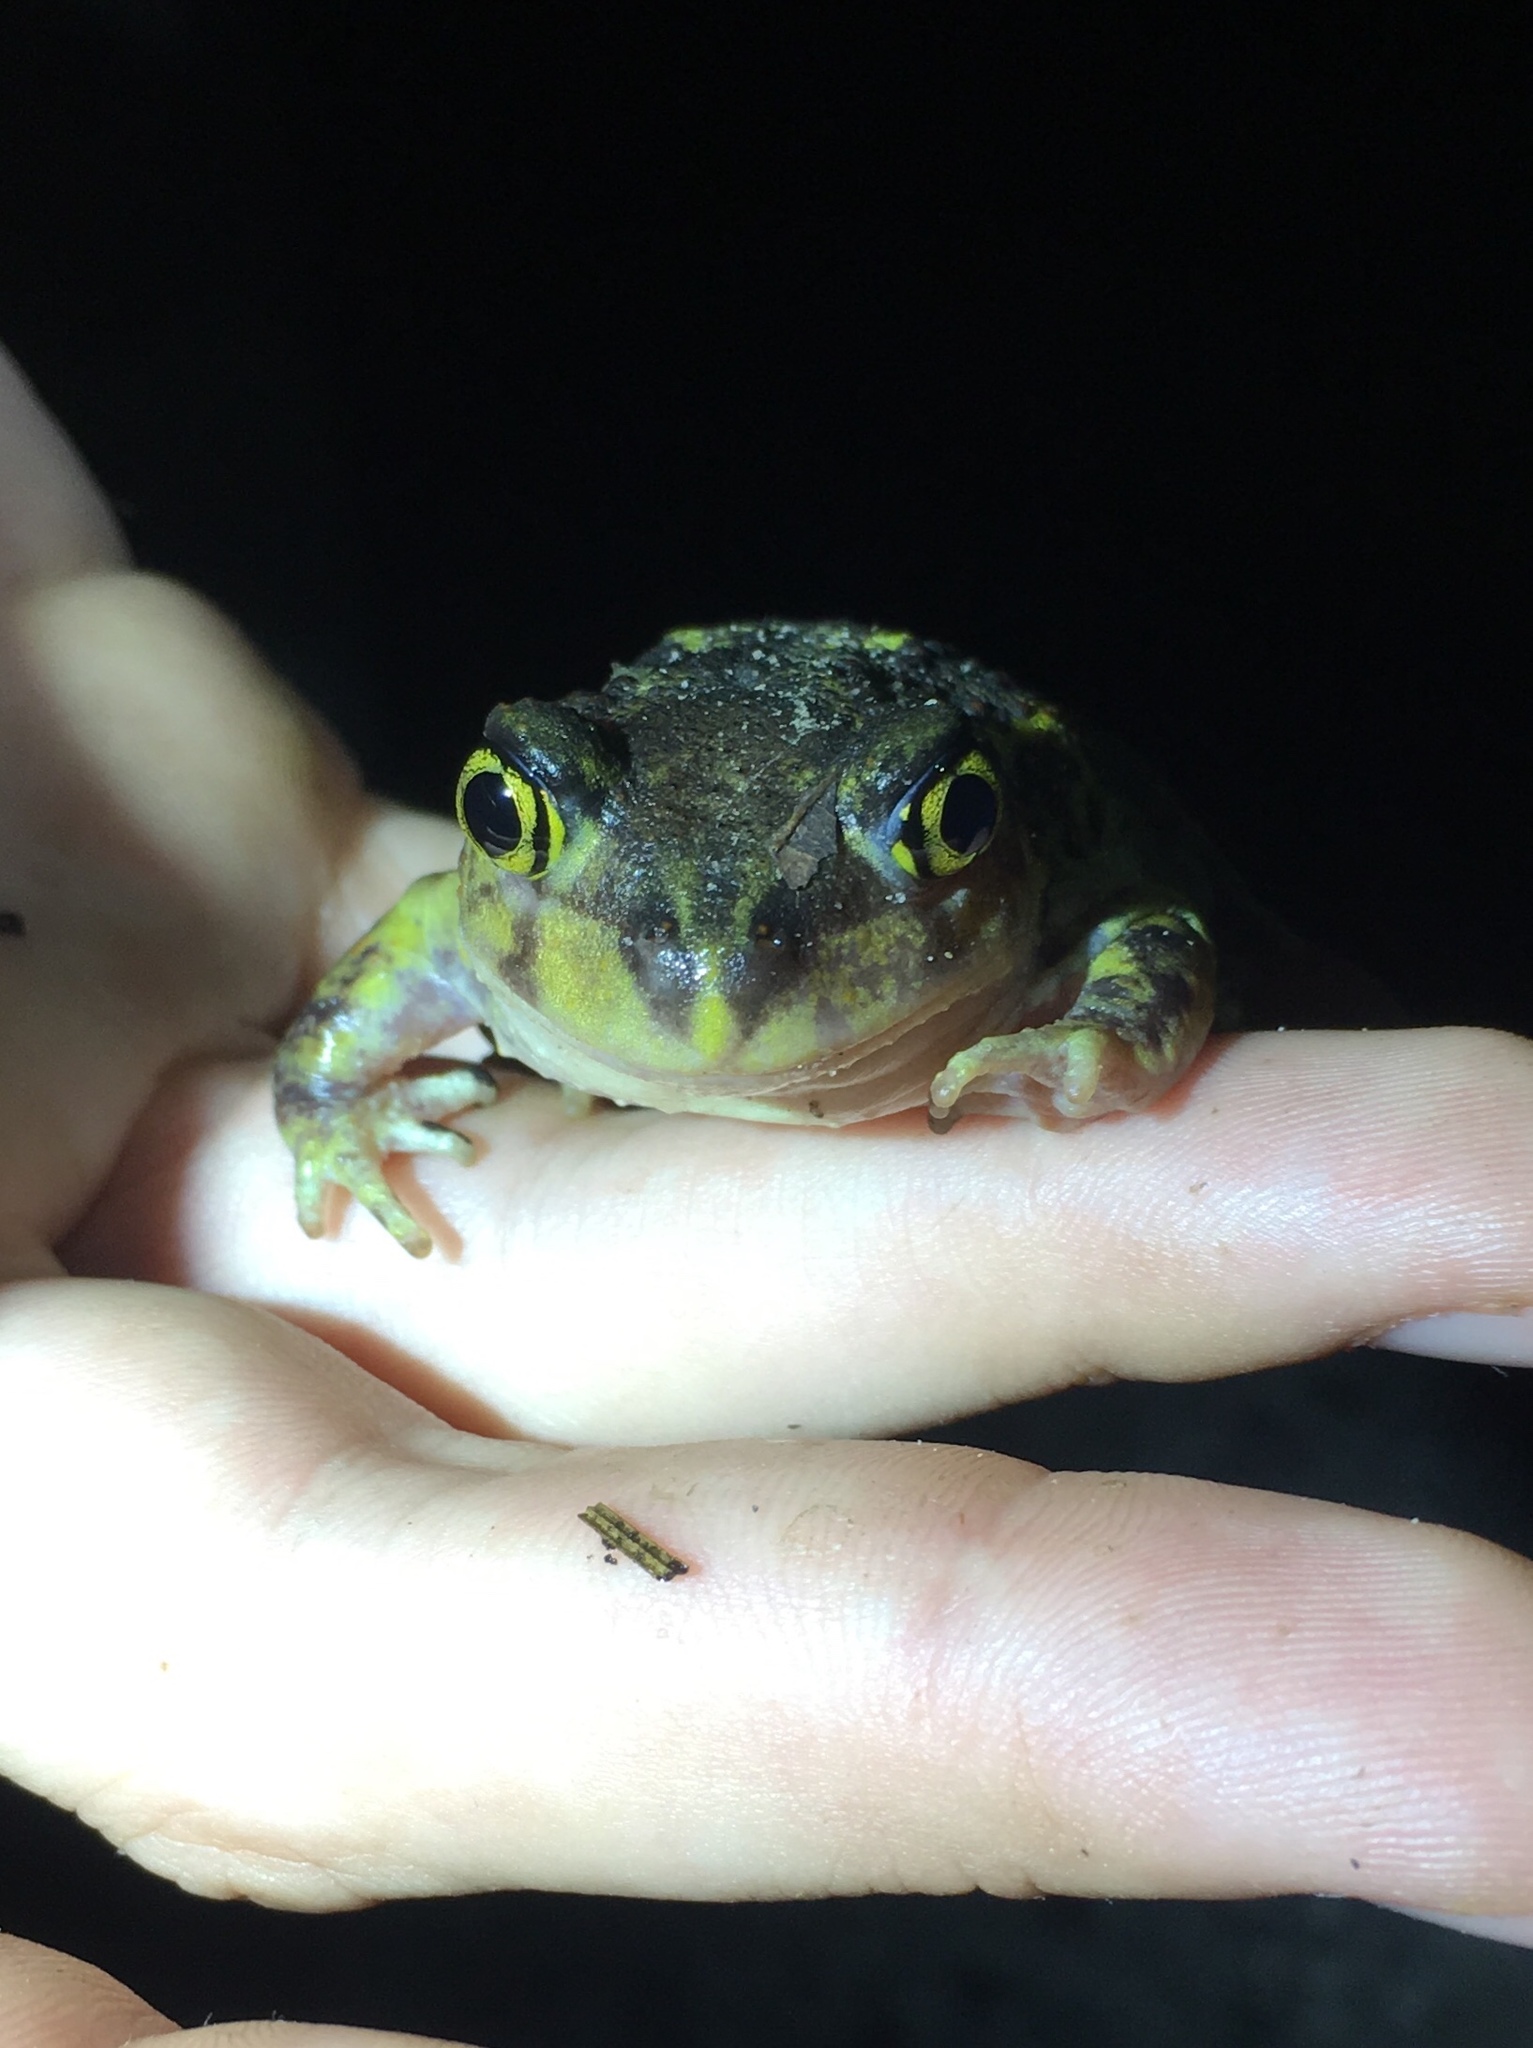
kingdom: Animalia
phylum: Chordata
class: Amphibia
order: Anura
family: Scaphiopodidae
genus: Scaphiopus
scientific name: Scaphiopus holbrookii
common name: Eastern spadefoot toad
